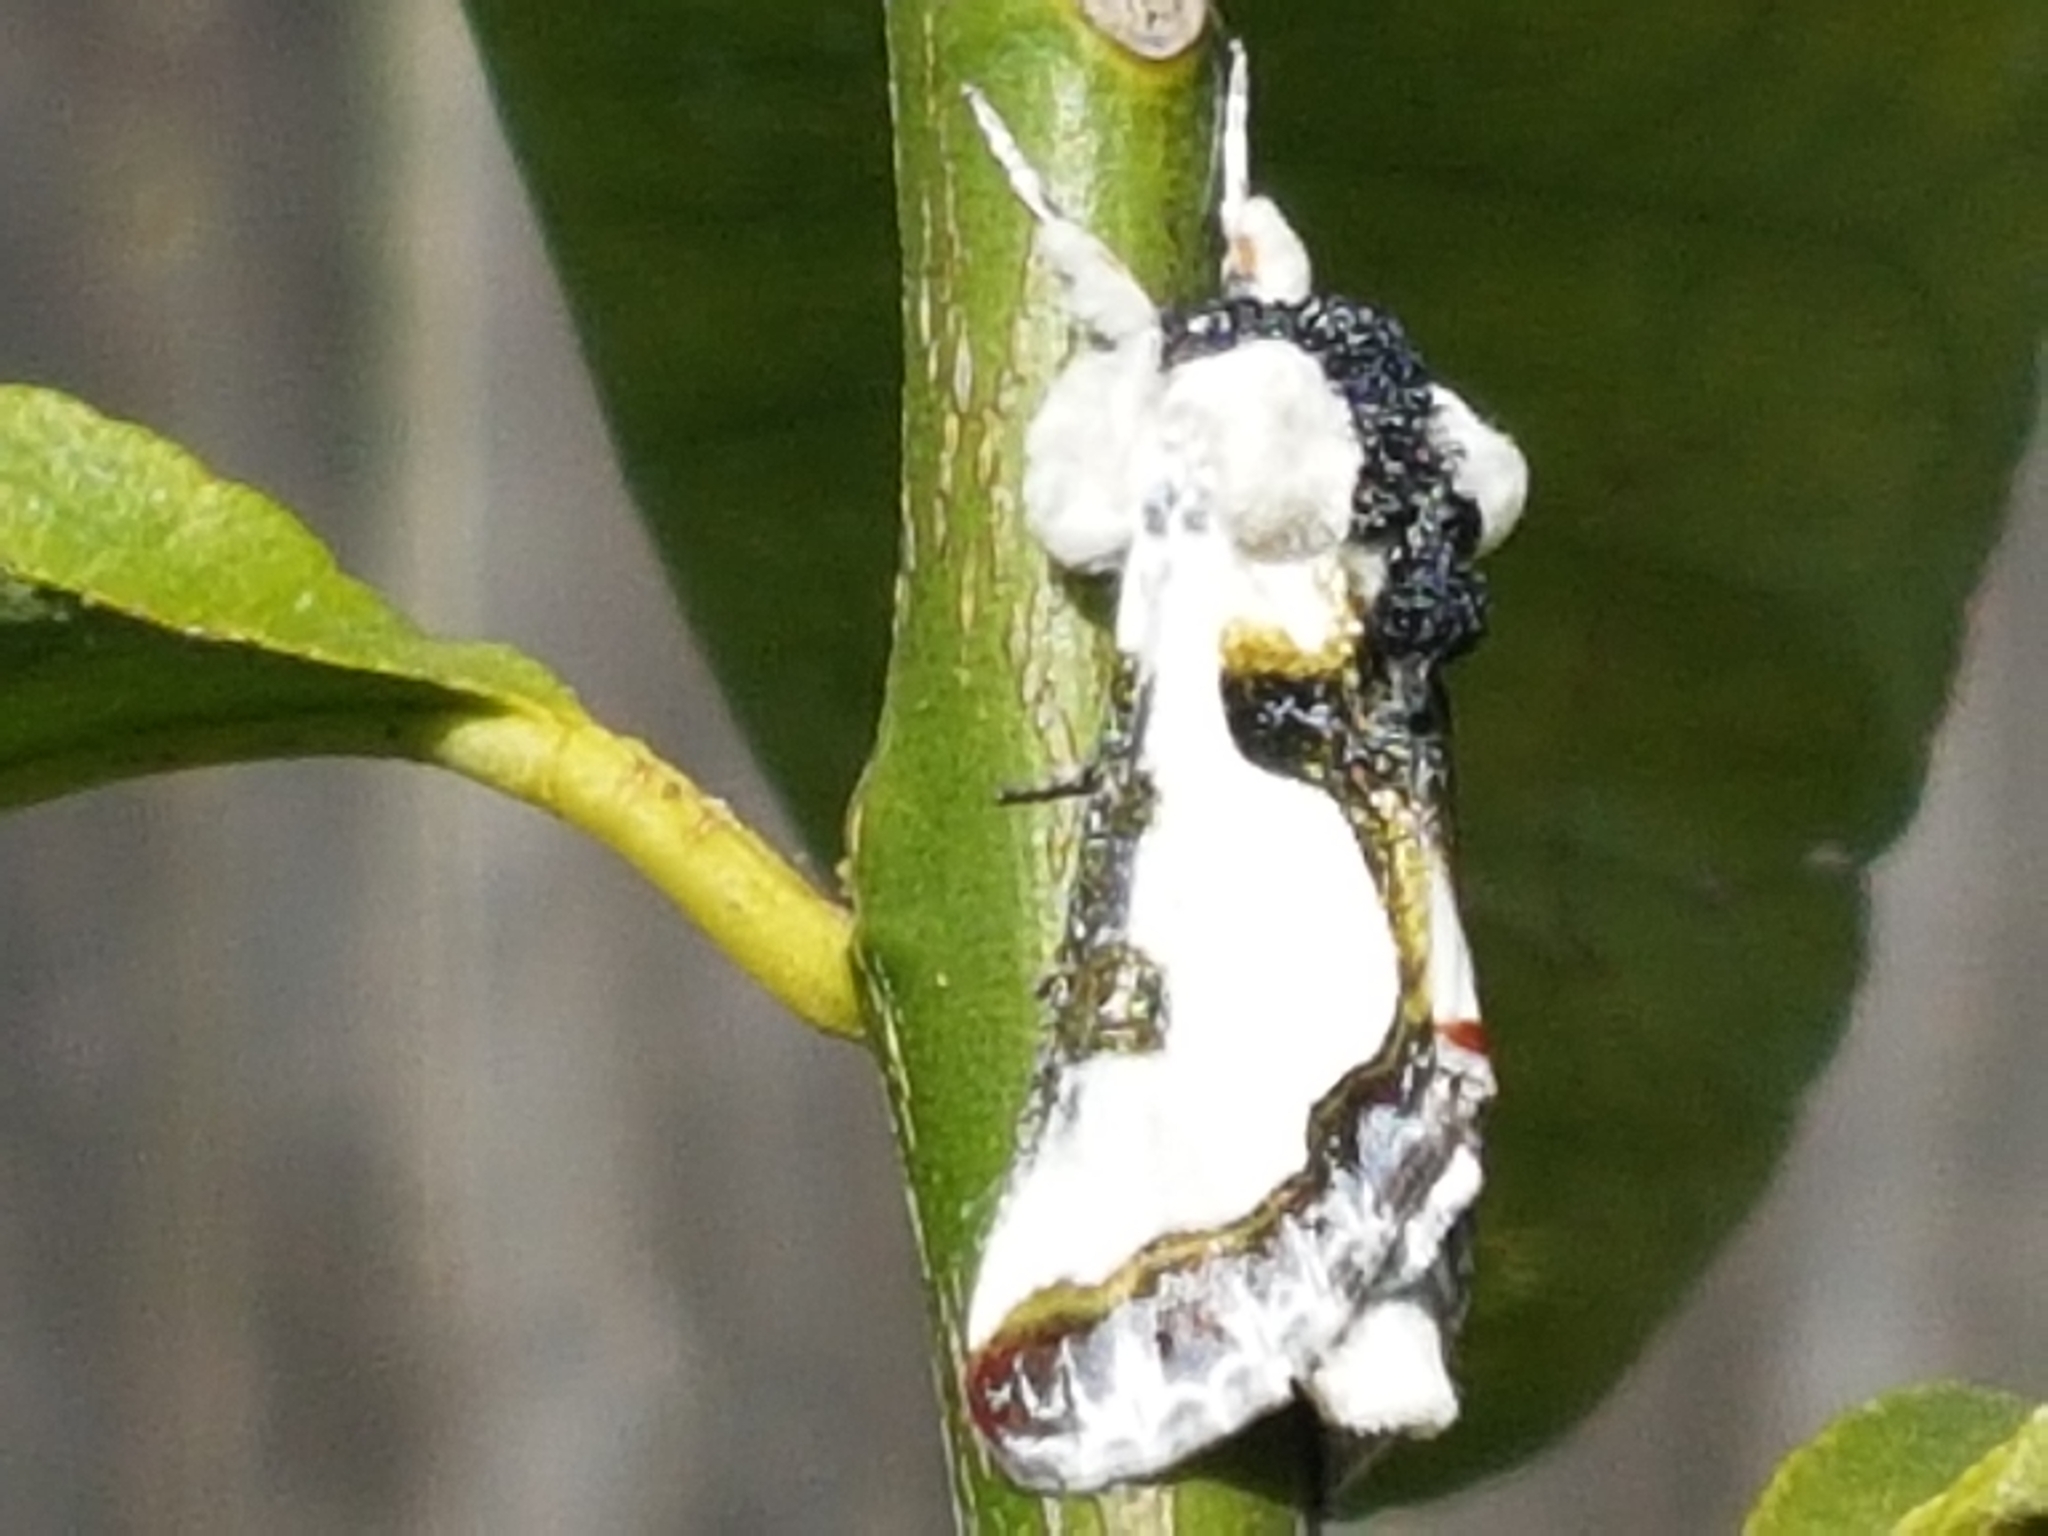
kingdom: Animalia
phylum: Arthropoda
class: Insecta
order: Lepidoptera
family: Noctuidae
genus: Xerociris
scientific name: Xerociris wilsonii
